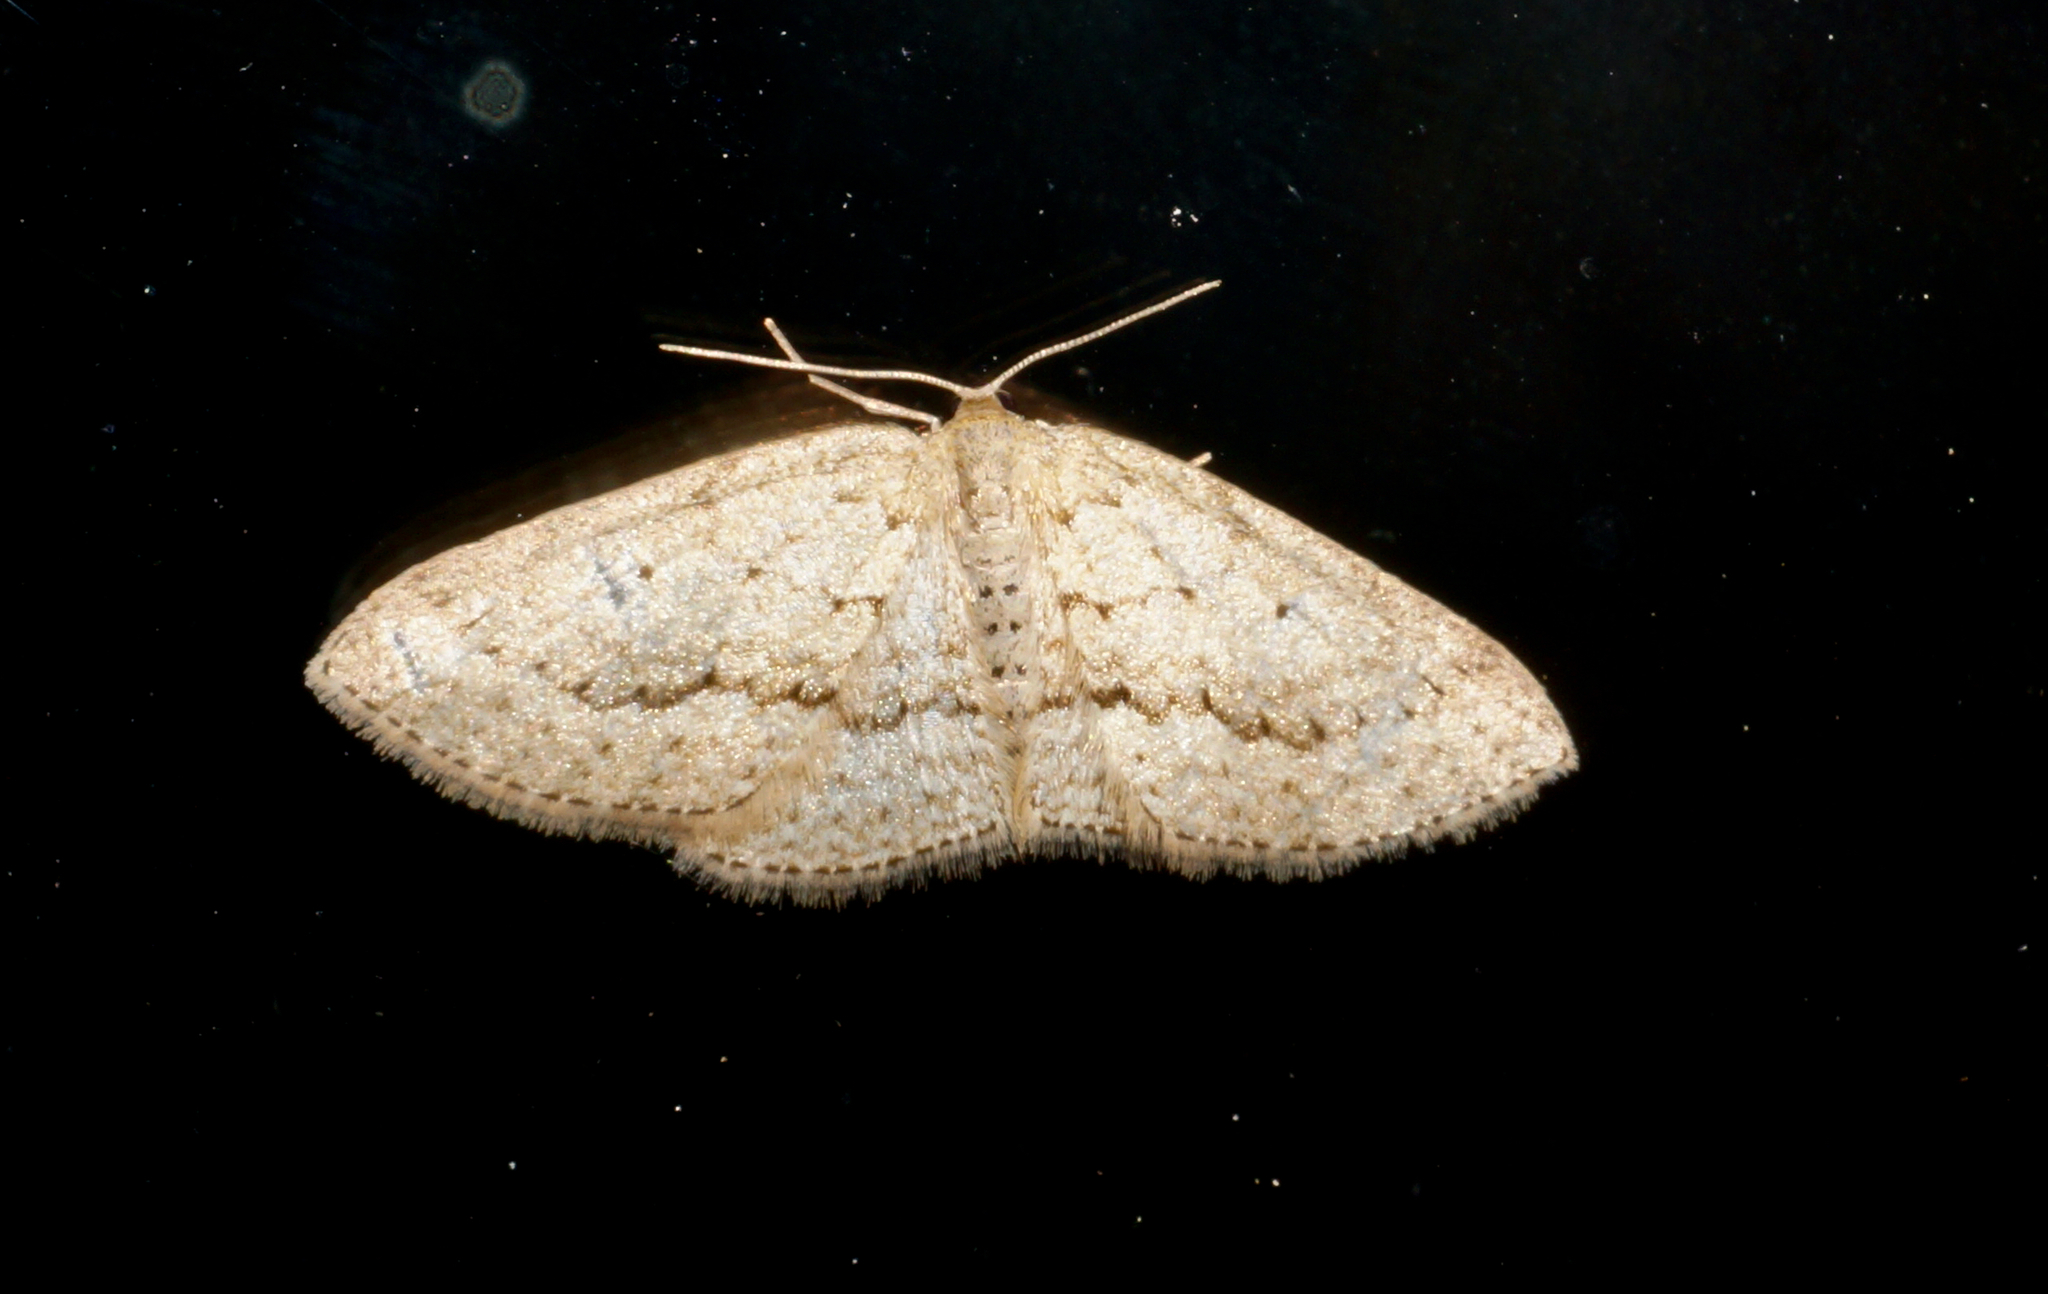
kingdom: Animalia
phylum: Arthropoda
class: Insecta
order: Lepidoptera
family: Geometridae
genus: Poecilasthena
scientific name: Poecilasthena schistaria
